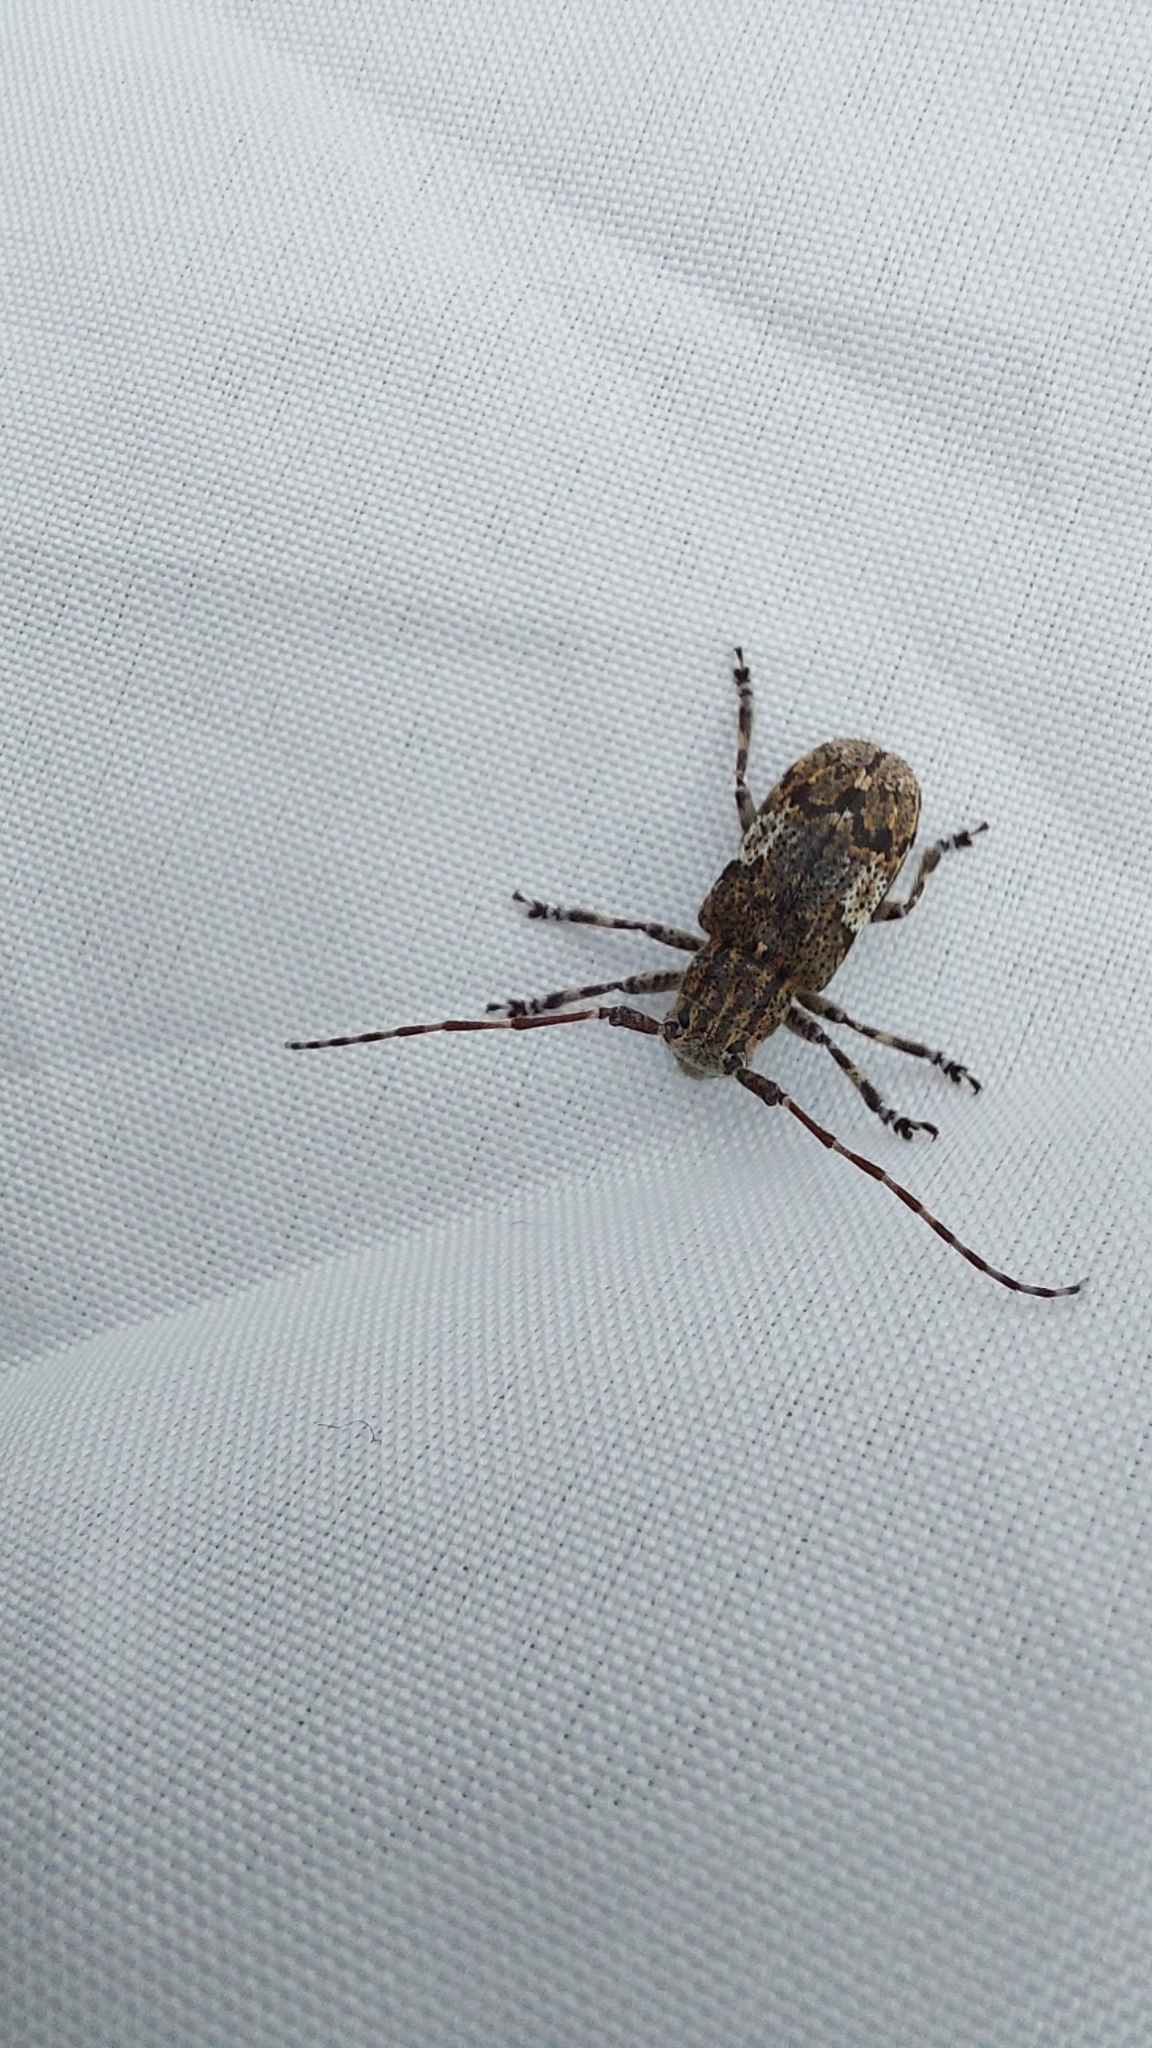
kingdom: Animalia
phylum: Arthropoda
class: Insecta
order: Coleoptera
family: Cerambycidae
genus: Mesosa
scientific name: Mesosa nebulosa
